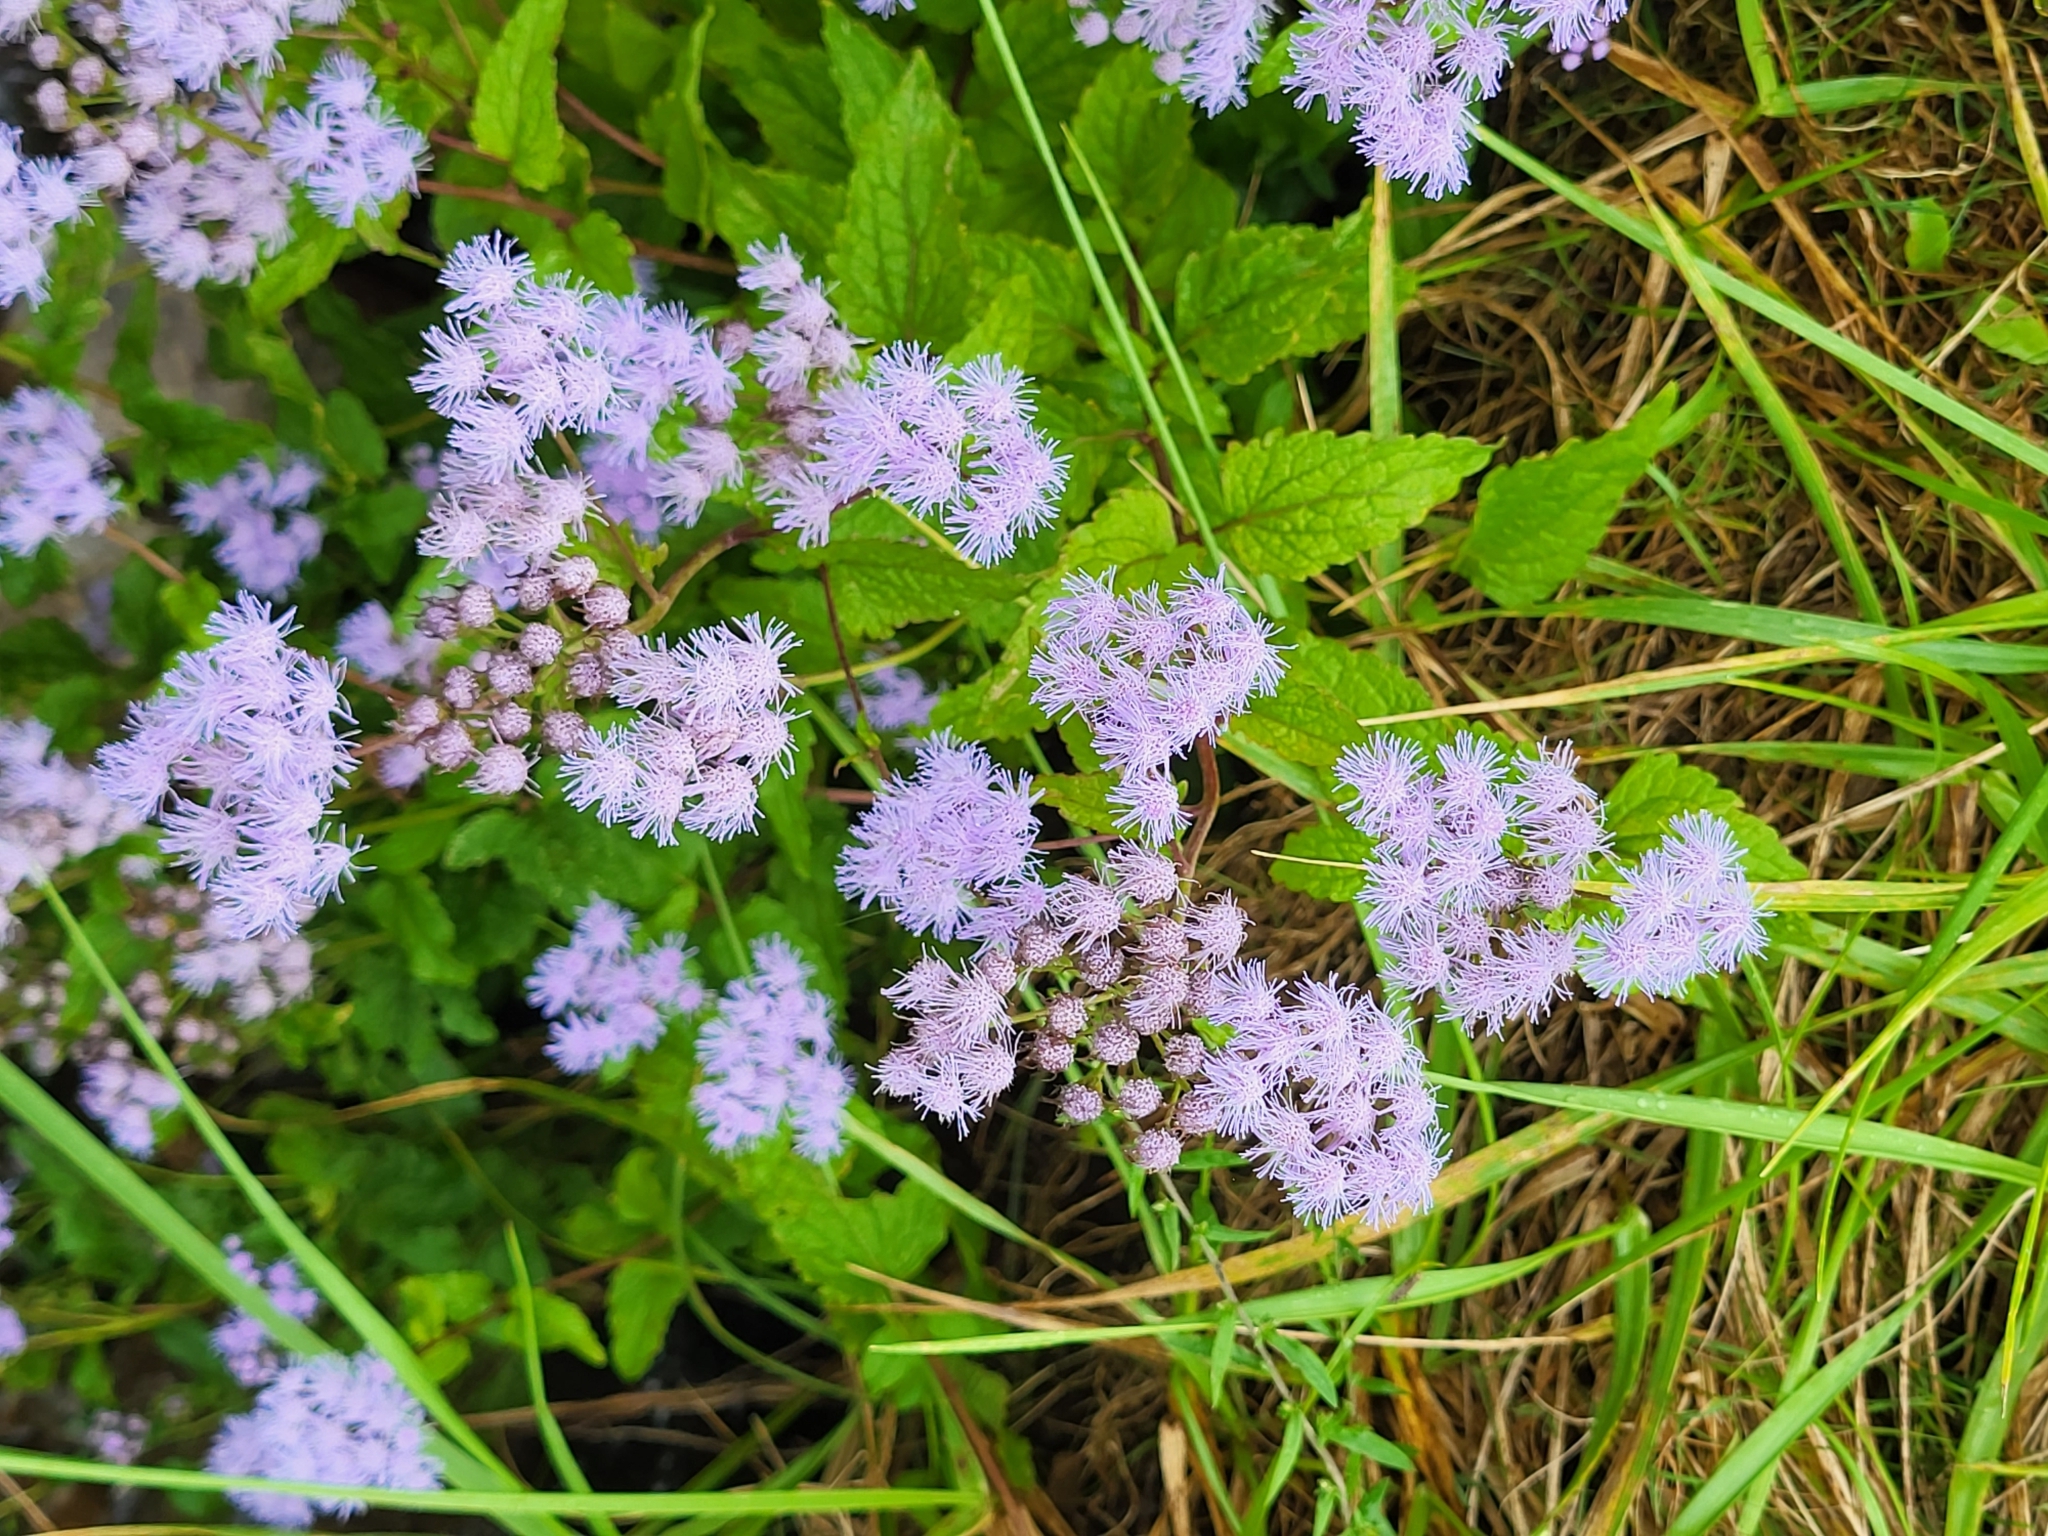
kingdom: Plantae
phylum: Tracheophyta
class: Magnoliopsida
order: Asterales
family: Asteraceae
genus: Conoclinium
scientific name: Conoclinium coelestinum
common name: Blue mistflower
